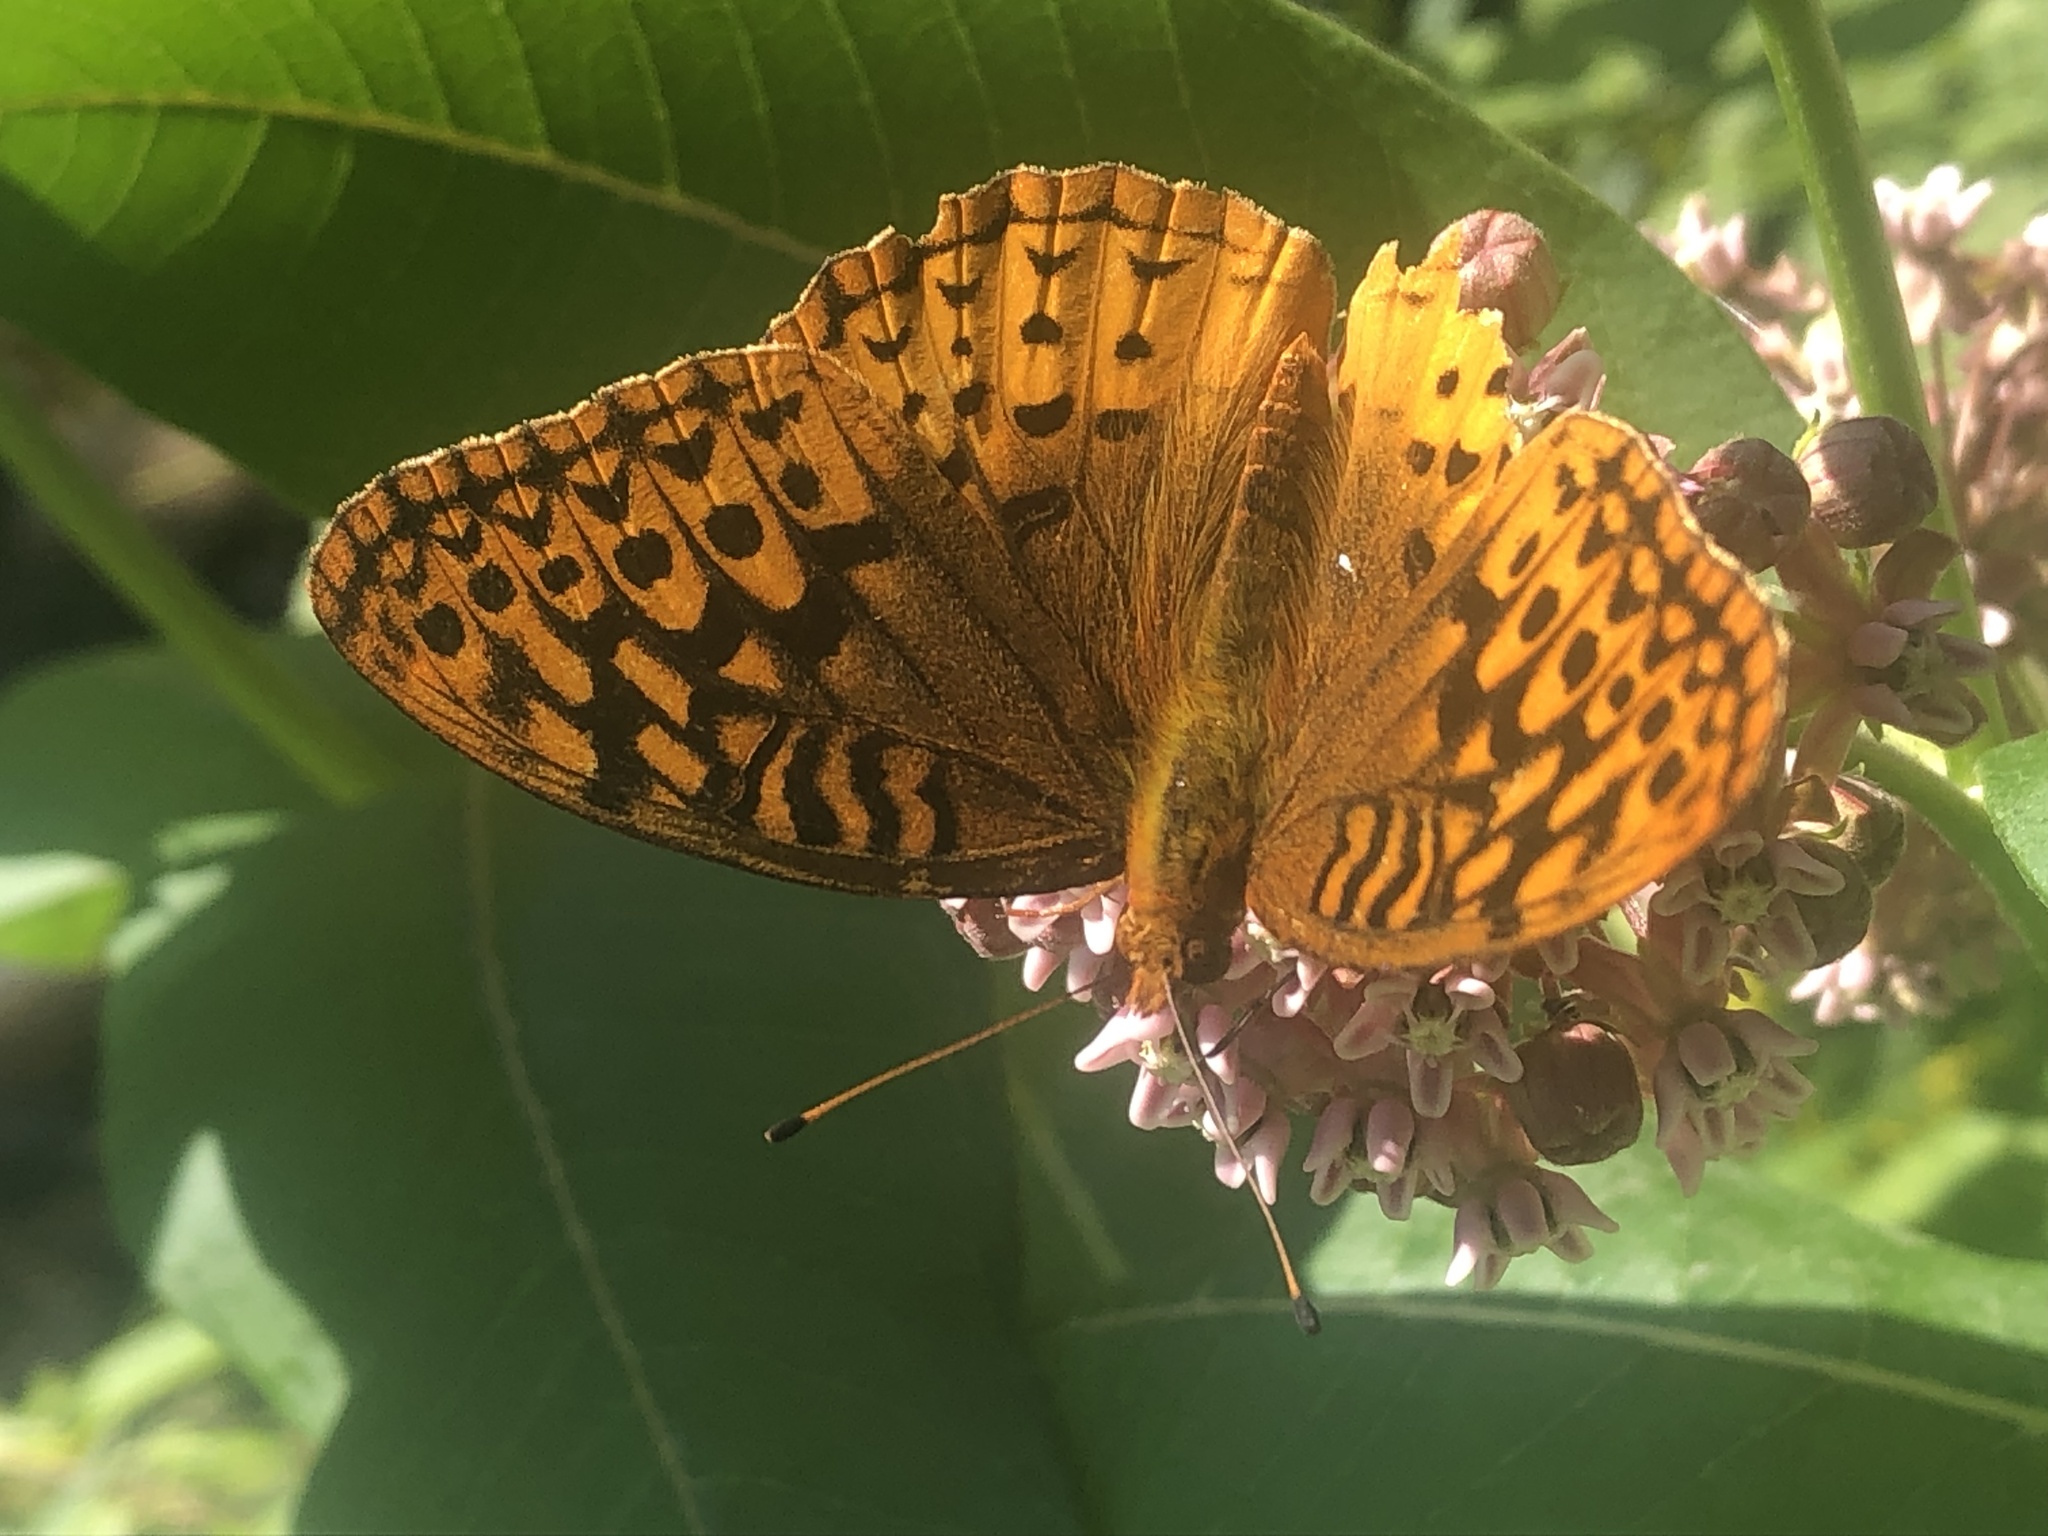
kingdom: Animalia
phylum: Arthropoda
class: Insecta
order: Lepidoptera
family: Nymphalidae
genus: Speyeria
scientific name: Speyeria cybele
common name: Great spangled fritillary
